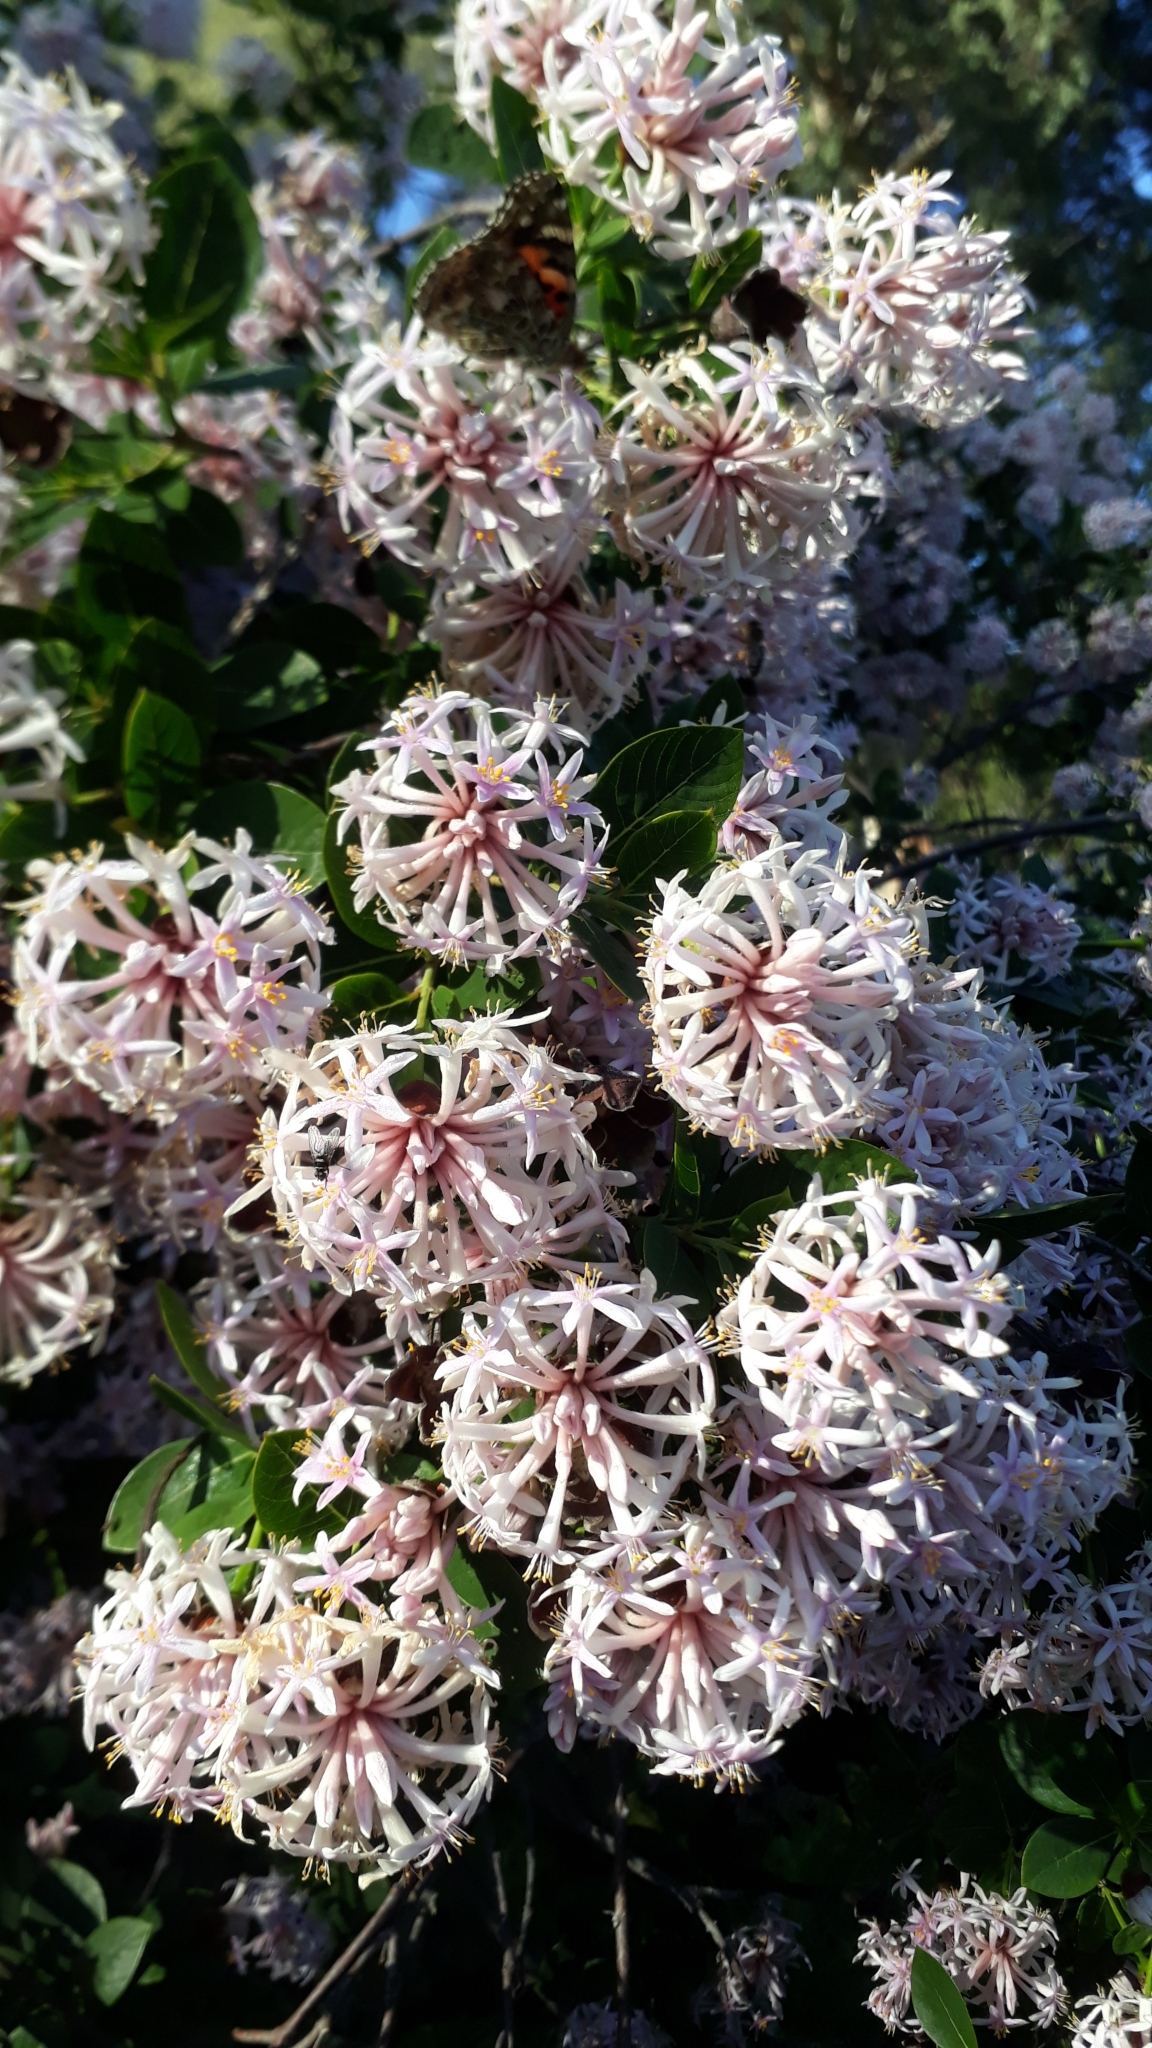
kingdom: Plantae
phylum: Tracheophyta
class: Magnoliopsida
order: Malvales
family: Thymelaeaceae
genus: Dais
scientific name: Dais cotinifolia
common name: Pompon tree
